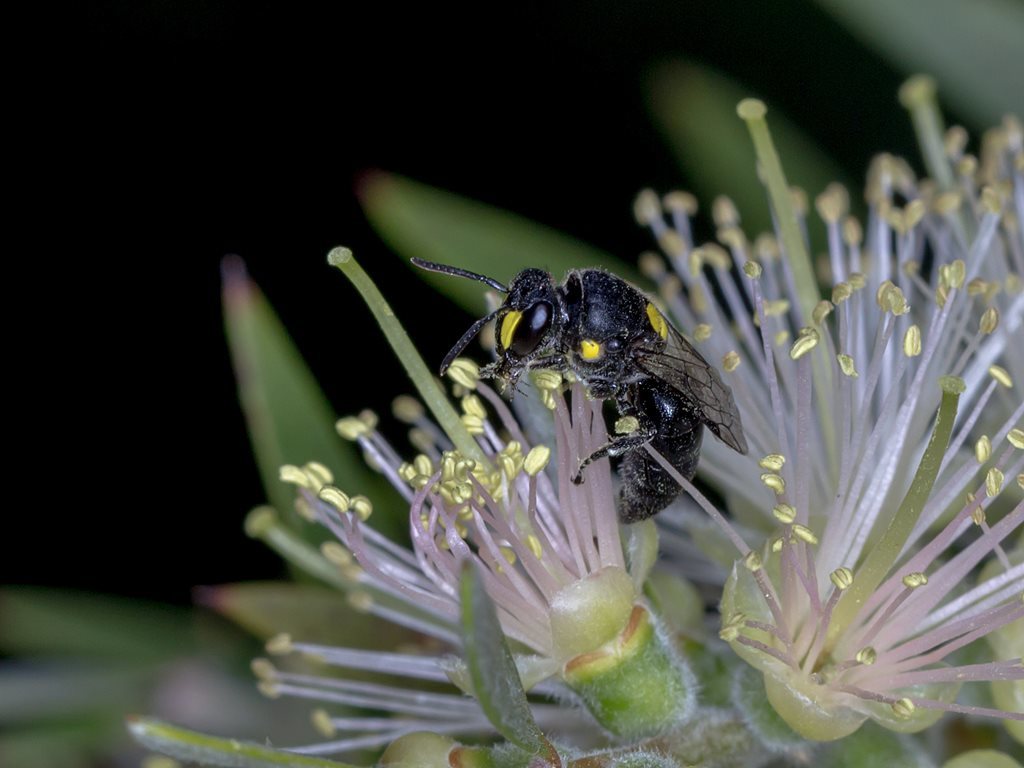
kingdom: Animalia
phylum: Arthropoda
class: Insecta
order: Hymenoptera
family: Colletidae
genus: Hylaeus
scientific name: Hylaeus honestus
